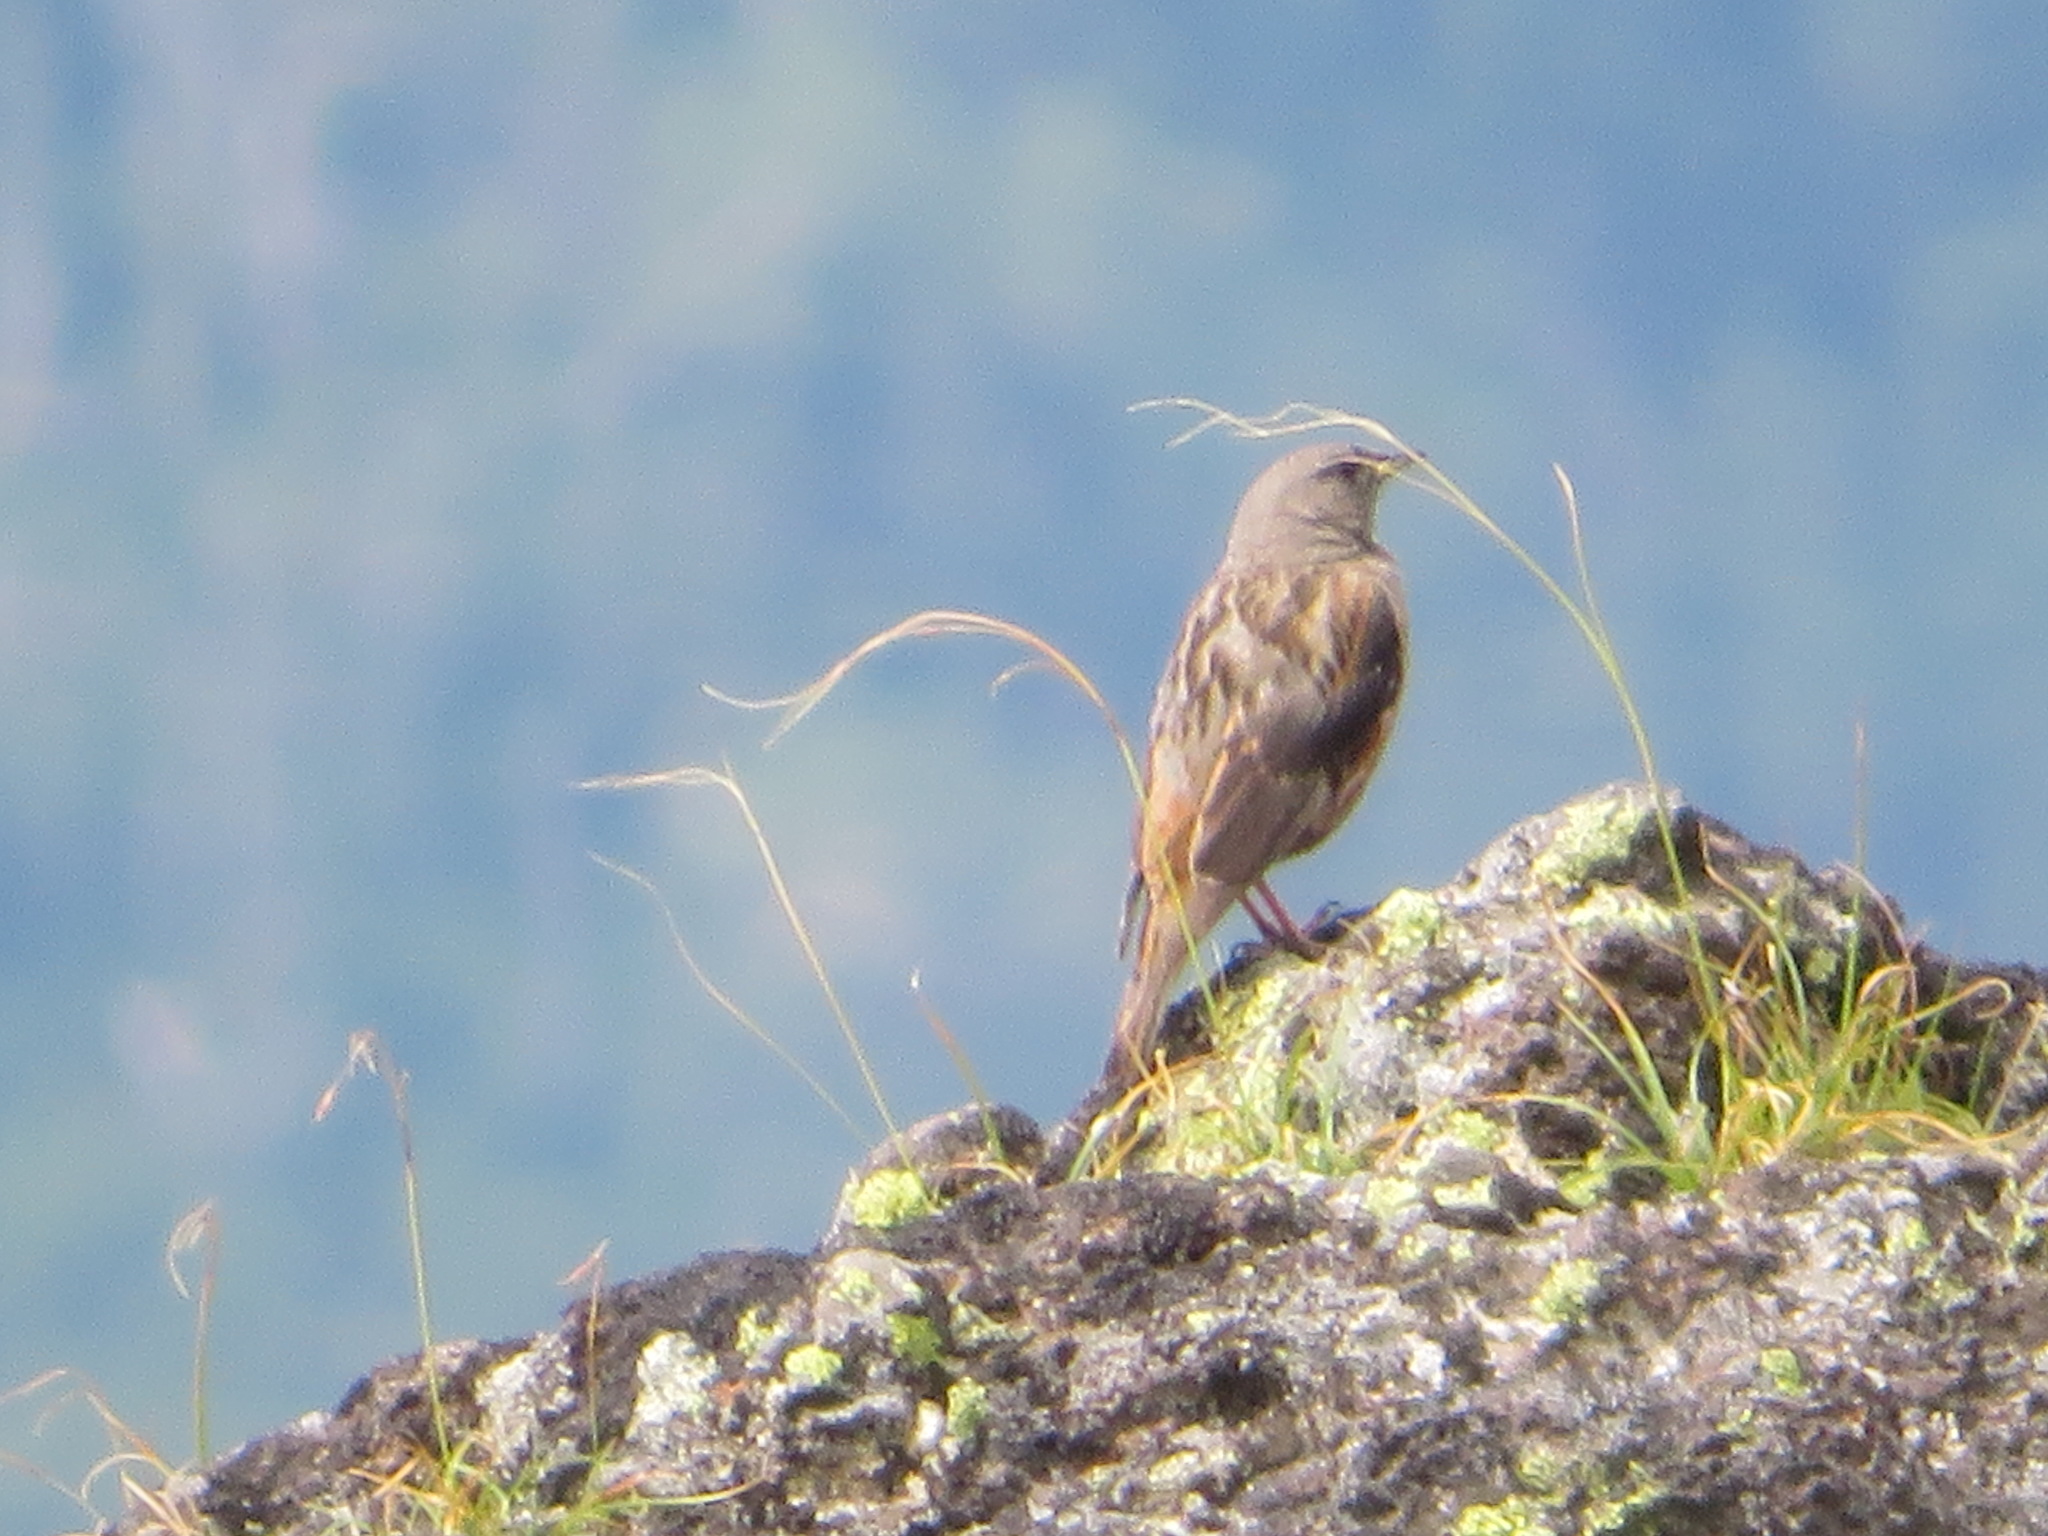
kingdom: Animalia
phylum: Chordata
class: Aves
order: Passeriformes
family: Prunellidae
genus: Prunella
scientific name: Prunella collaris
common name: Alpine accentor
